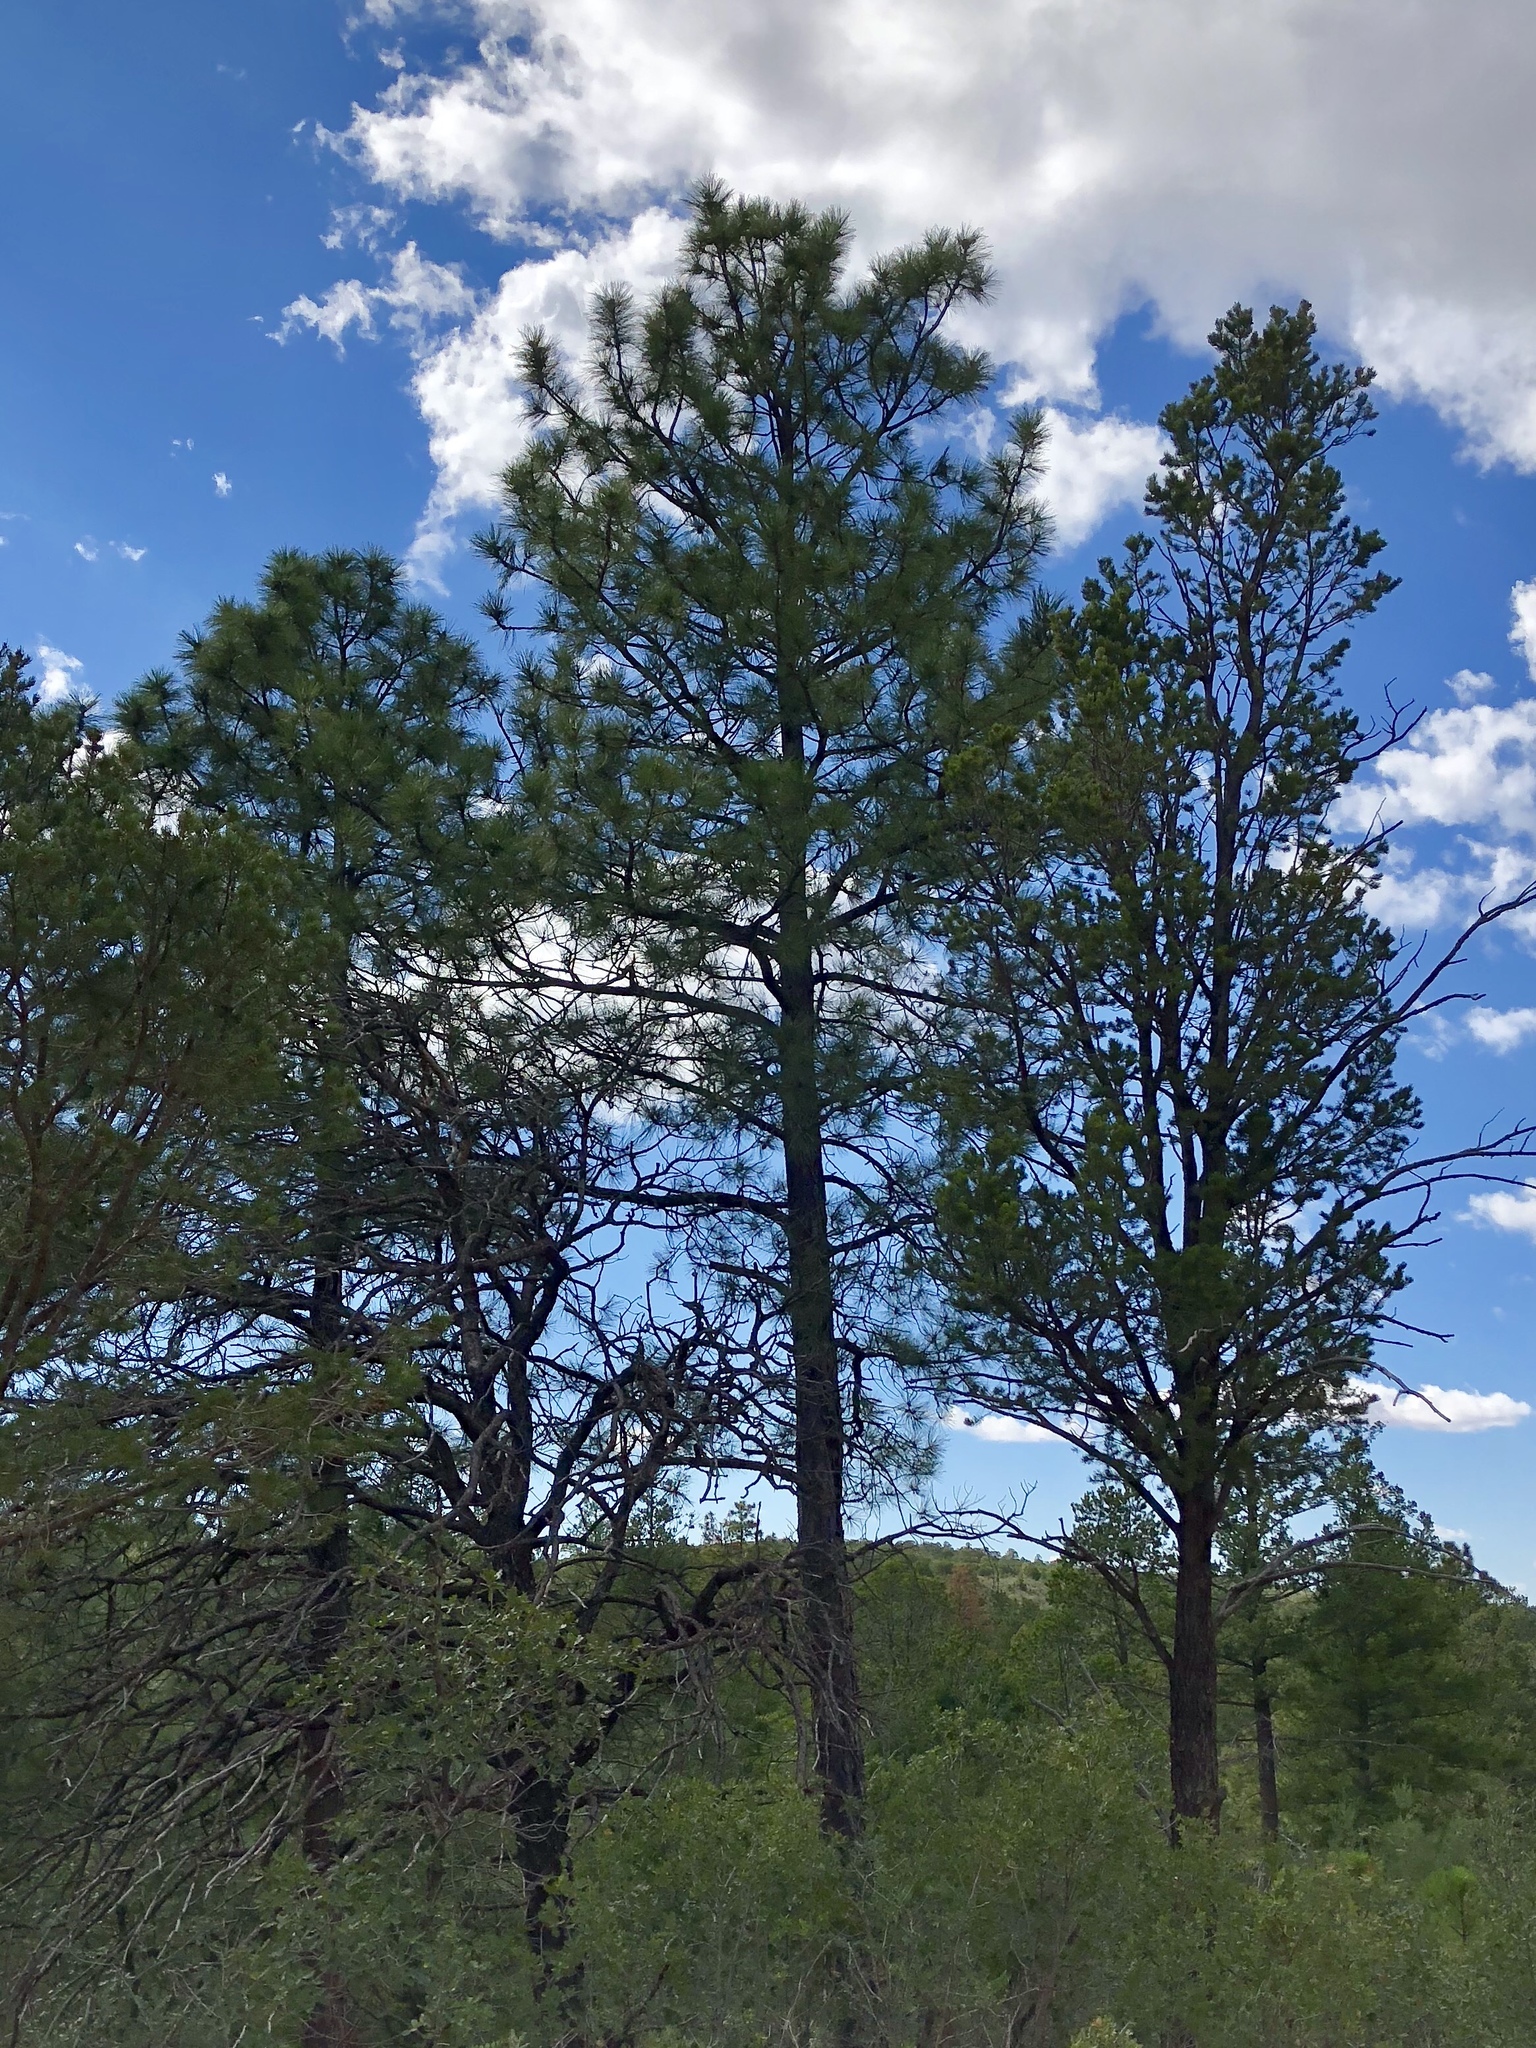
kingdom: Plantae
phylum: Tracheophyta
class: Pinopsida
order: Pinales
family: Pinaceae
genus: Pinus
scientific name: Pinus ponderosa
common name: Western yellow-pine
